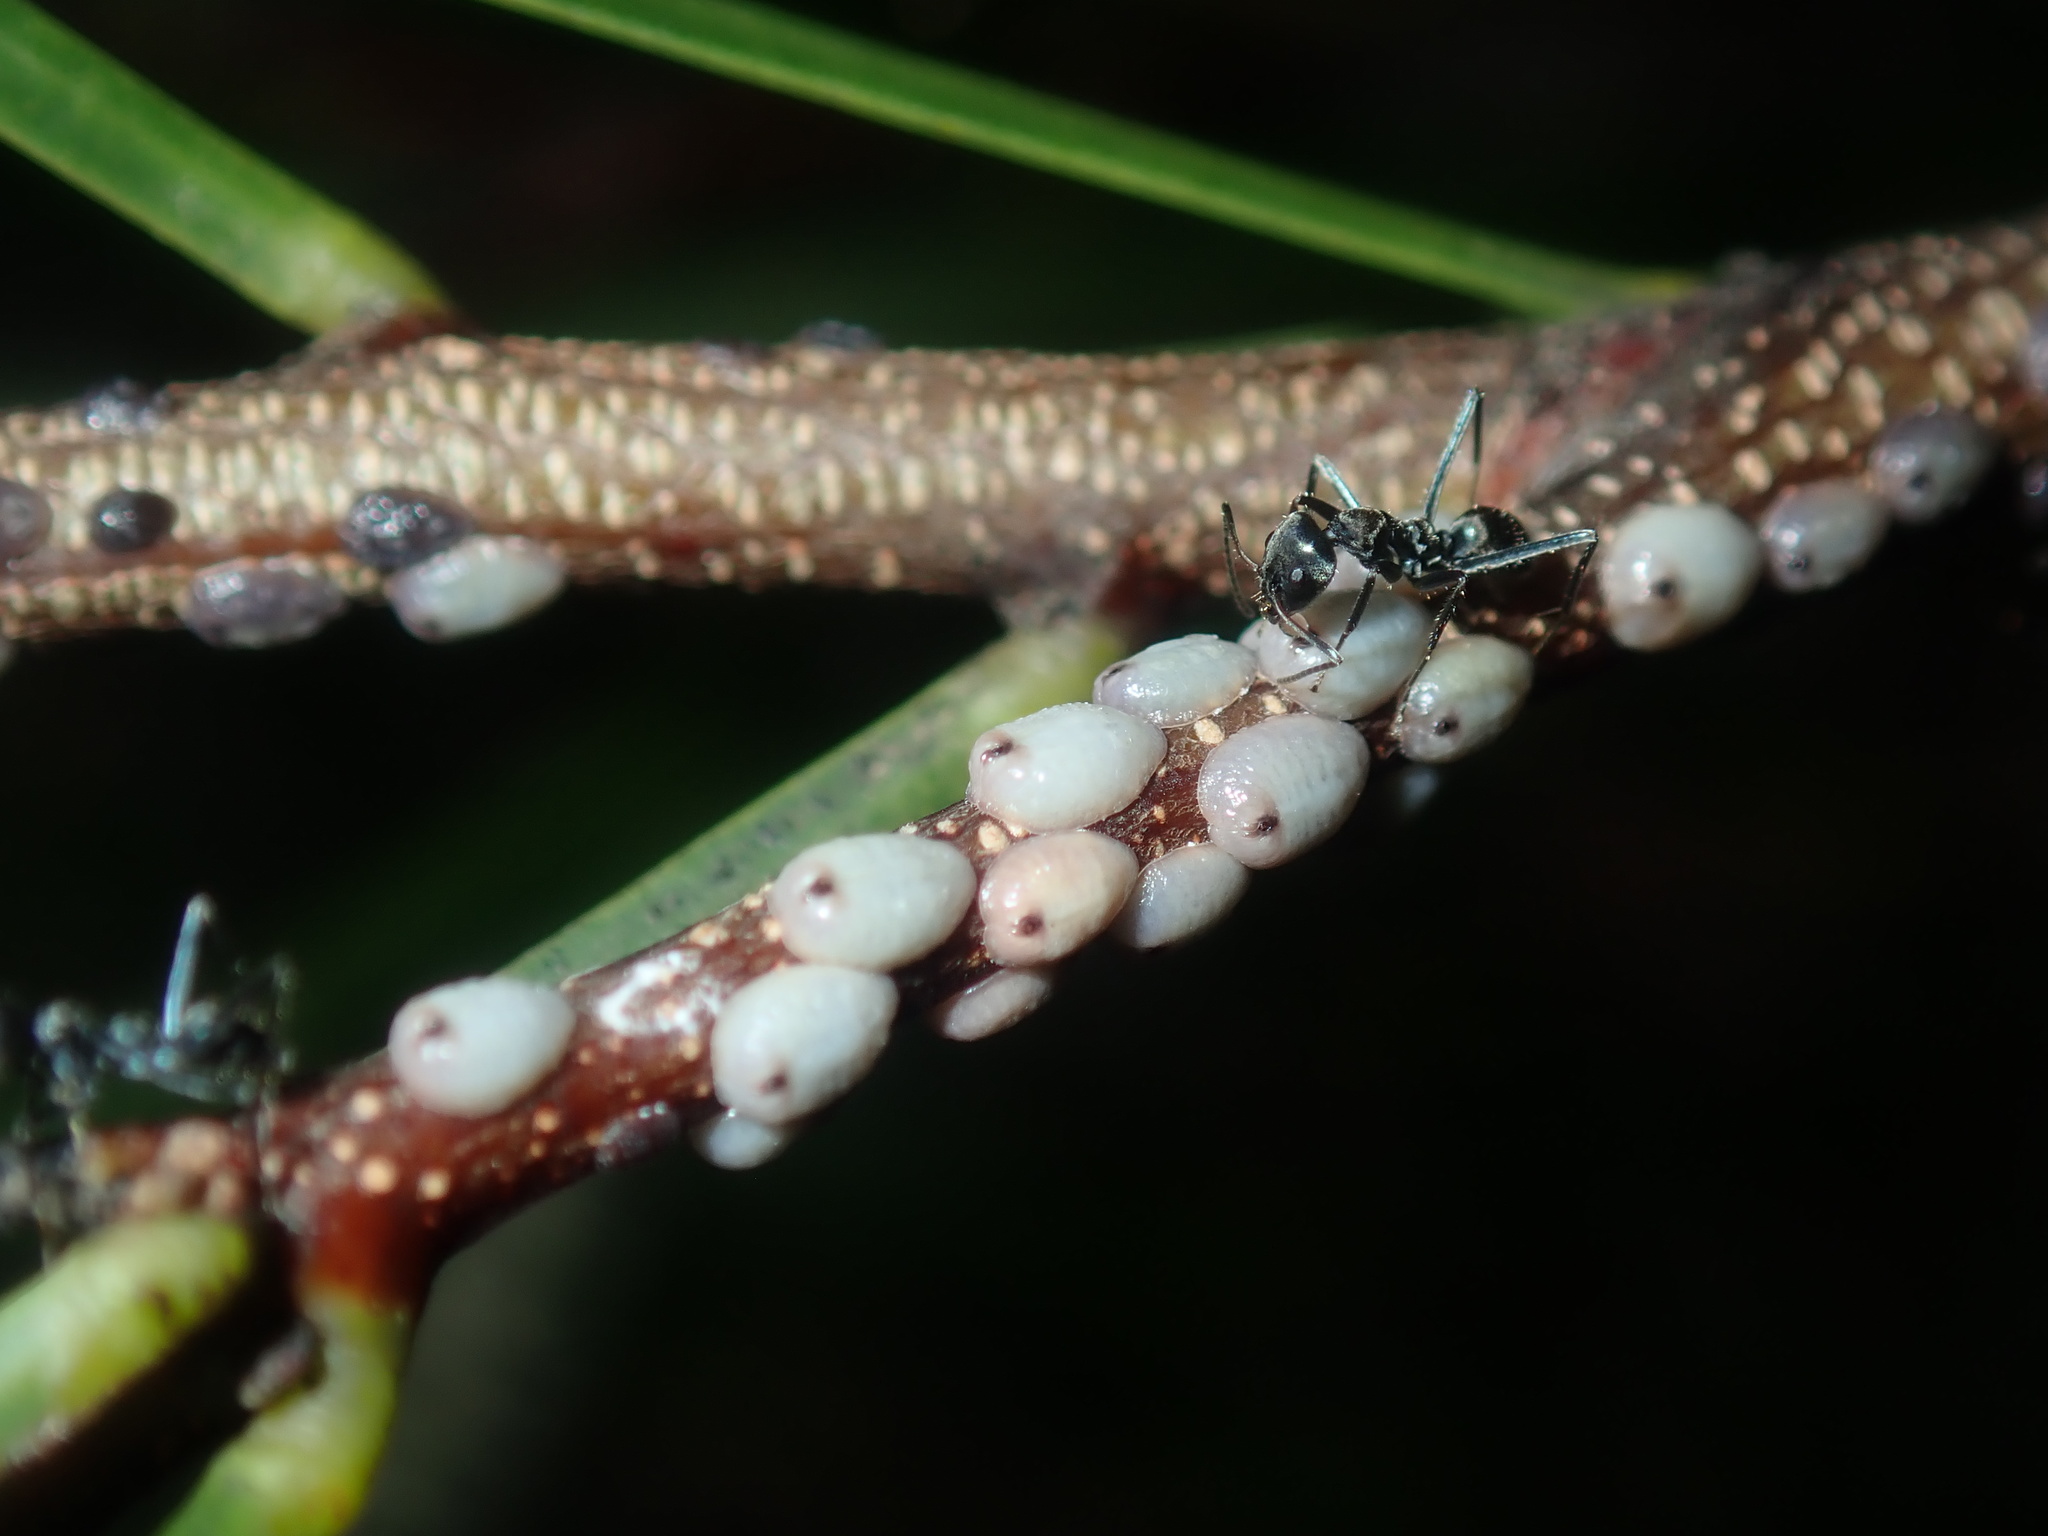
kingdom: Animalia
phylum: Arthropoda
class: Insecta
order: Hemiptera
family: Coccidae
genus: Cryptes
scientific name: Cryptes baccatus
